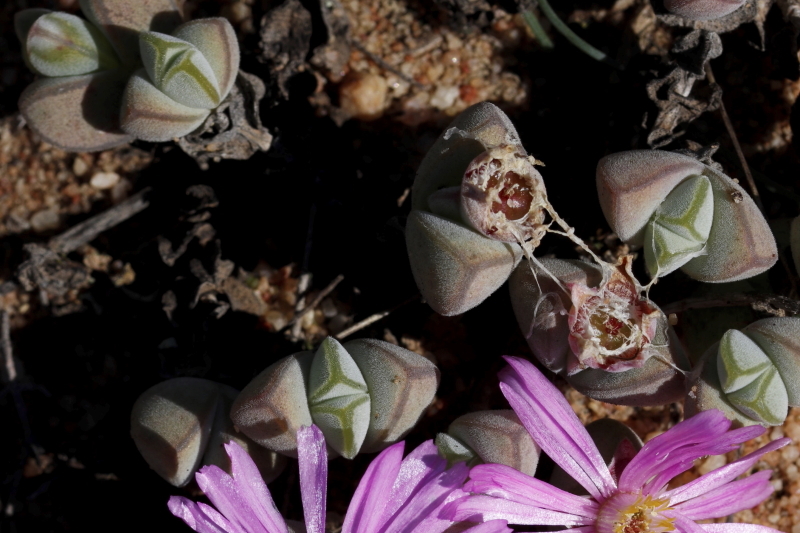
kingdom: Plantae
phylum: Tracheophyta
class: Magnoliopsida
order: Caryophyllales
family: Aizoaceae
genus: Braunsia
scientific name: Braunsia maximiliani
